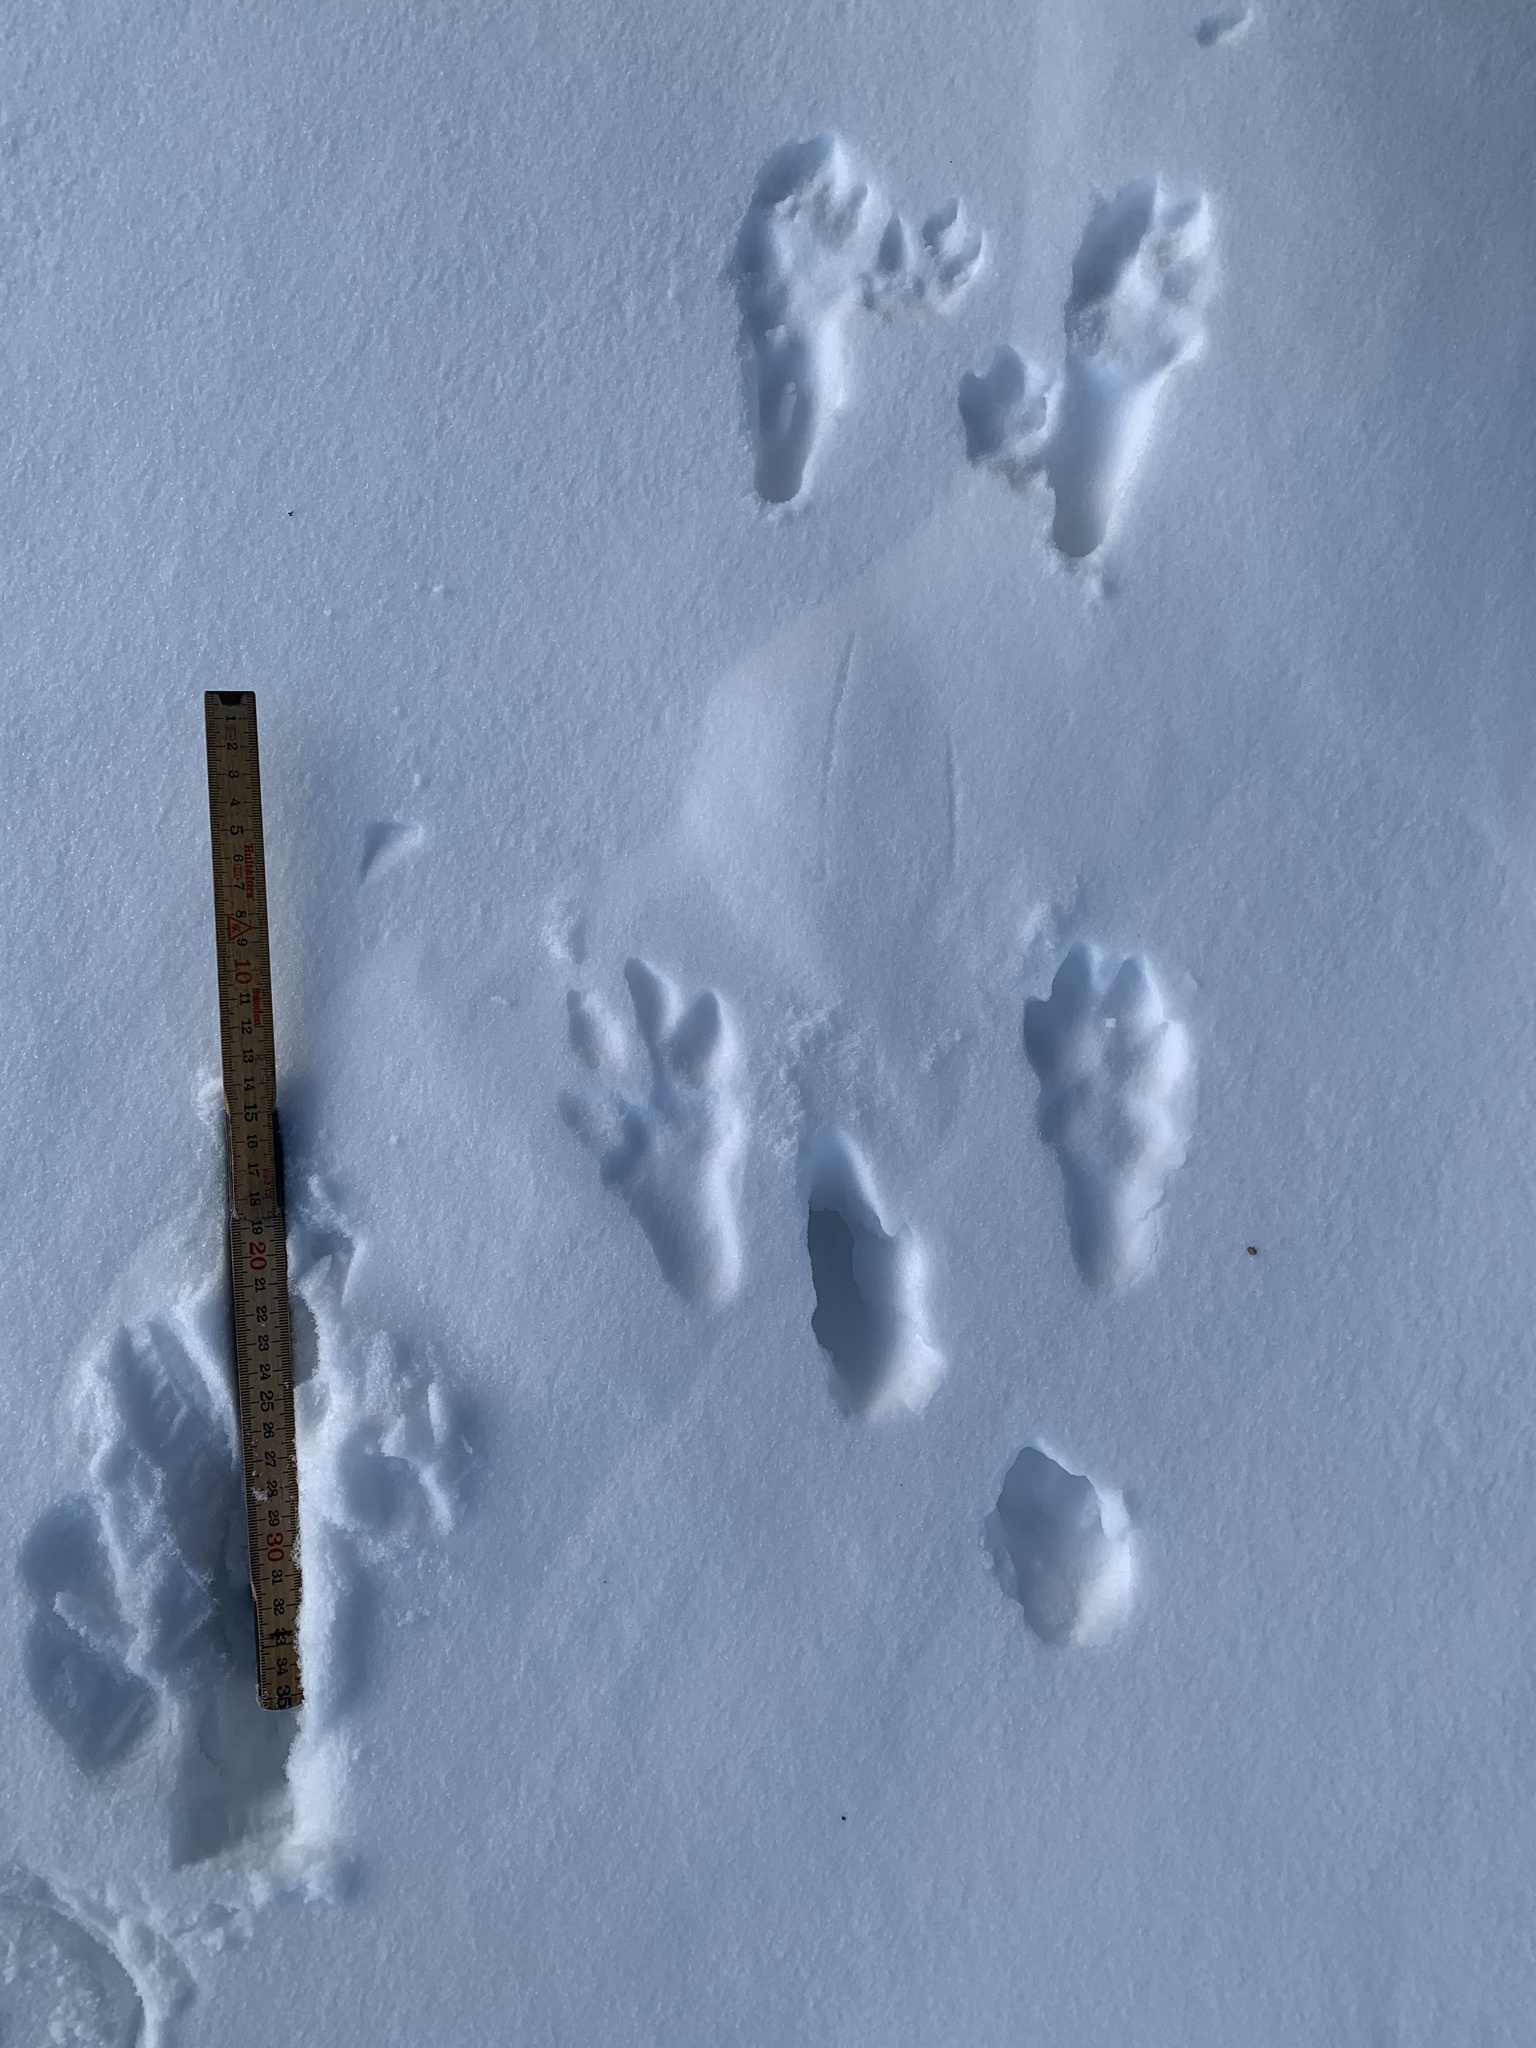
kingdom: Animalia
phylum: Chordata
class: Mammalia
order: Lagomorpha
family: Leporidae
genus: Lepus
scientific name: Lepus europaeus
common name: European hare
